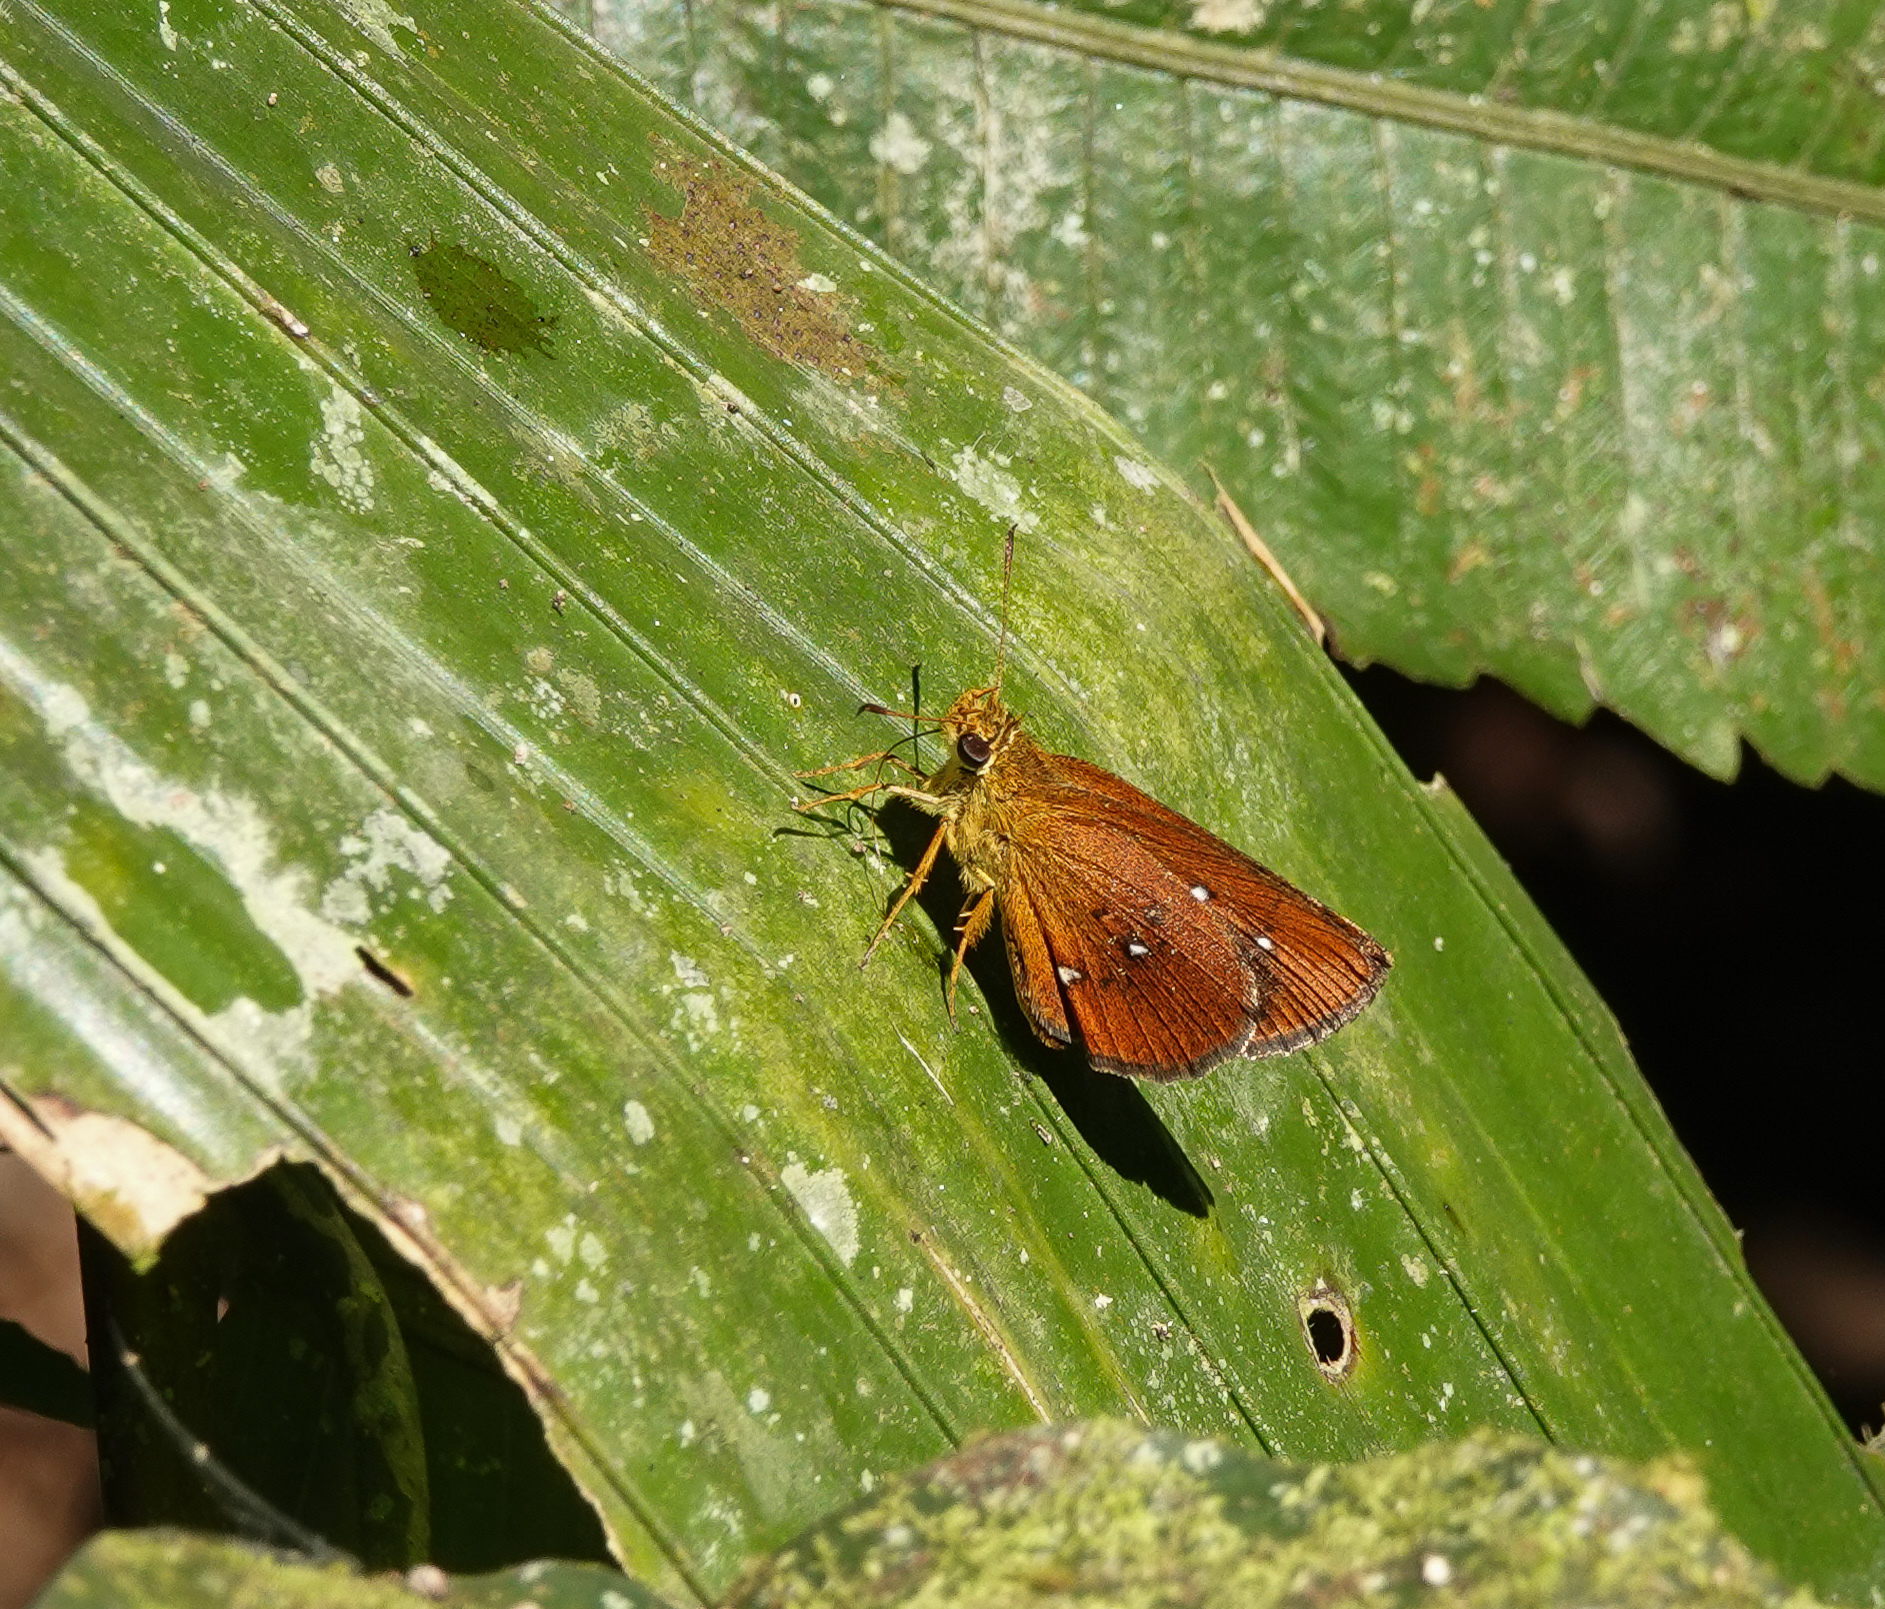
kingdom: Animalia
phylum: Arthropoda
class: Insecta
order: Lepidoptera
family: Hesperiidae
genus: Iambrix
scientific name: Iambrix salsala
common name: Chestnut bob
